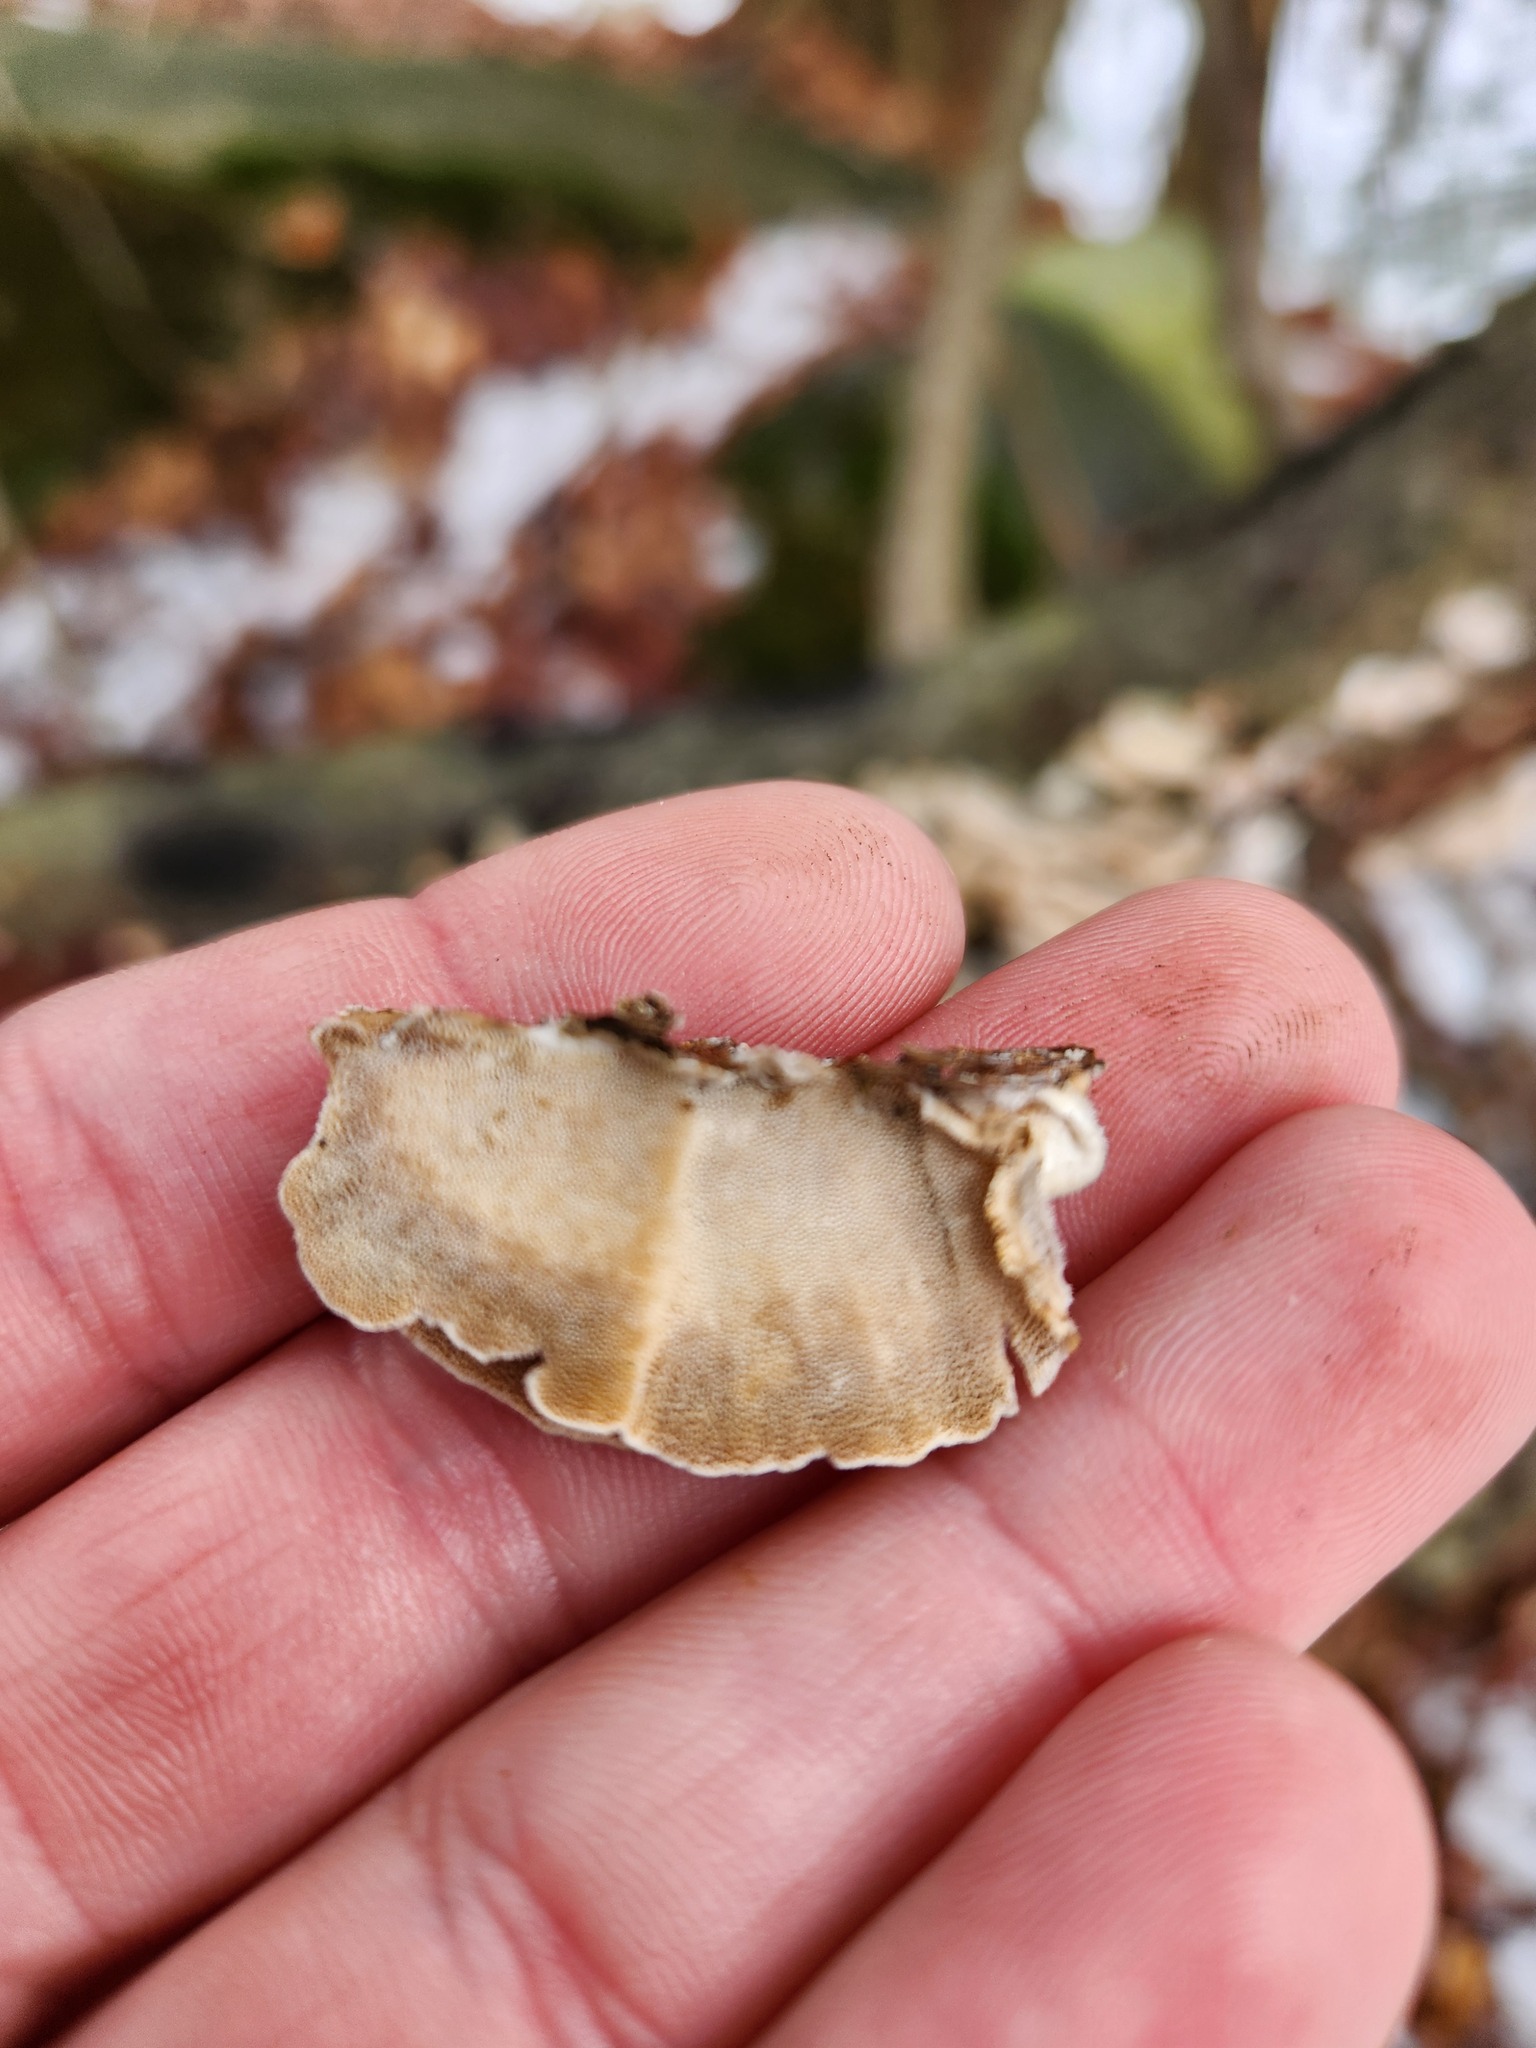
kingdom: Fungi
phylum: Basidiomycota
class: Agaricomycetes
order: Polyporales
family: Polyporaceae
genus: Trametes
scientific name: Trametes versicolor
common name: Turkeytail
